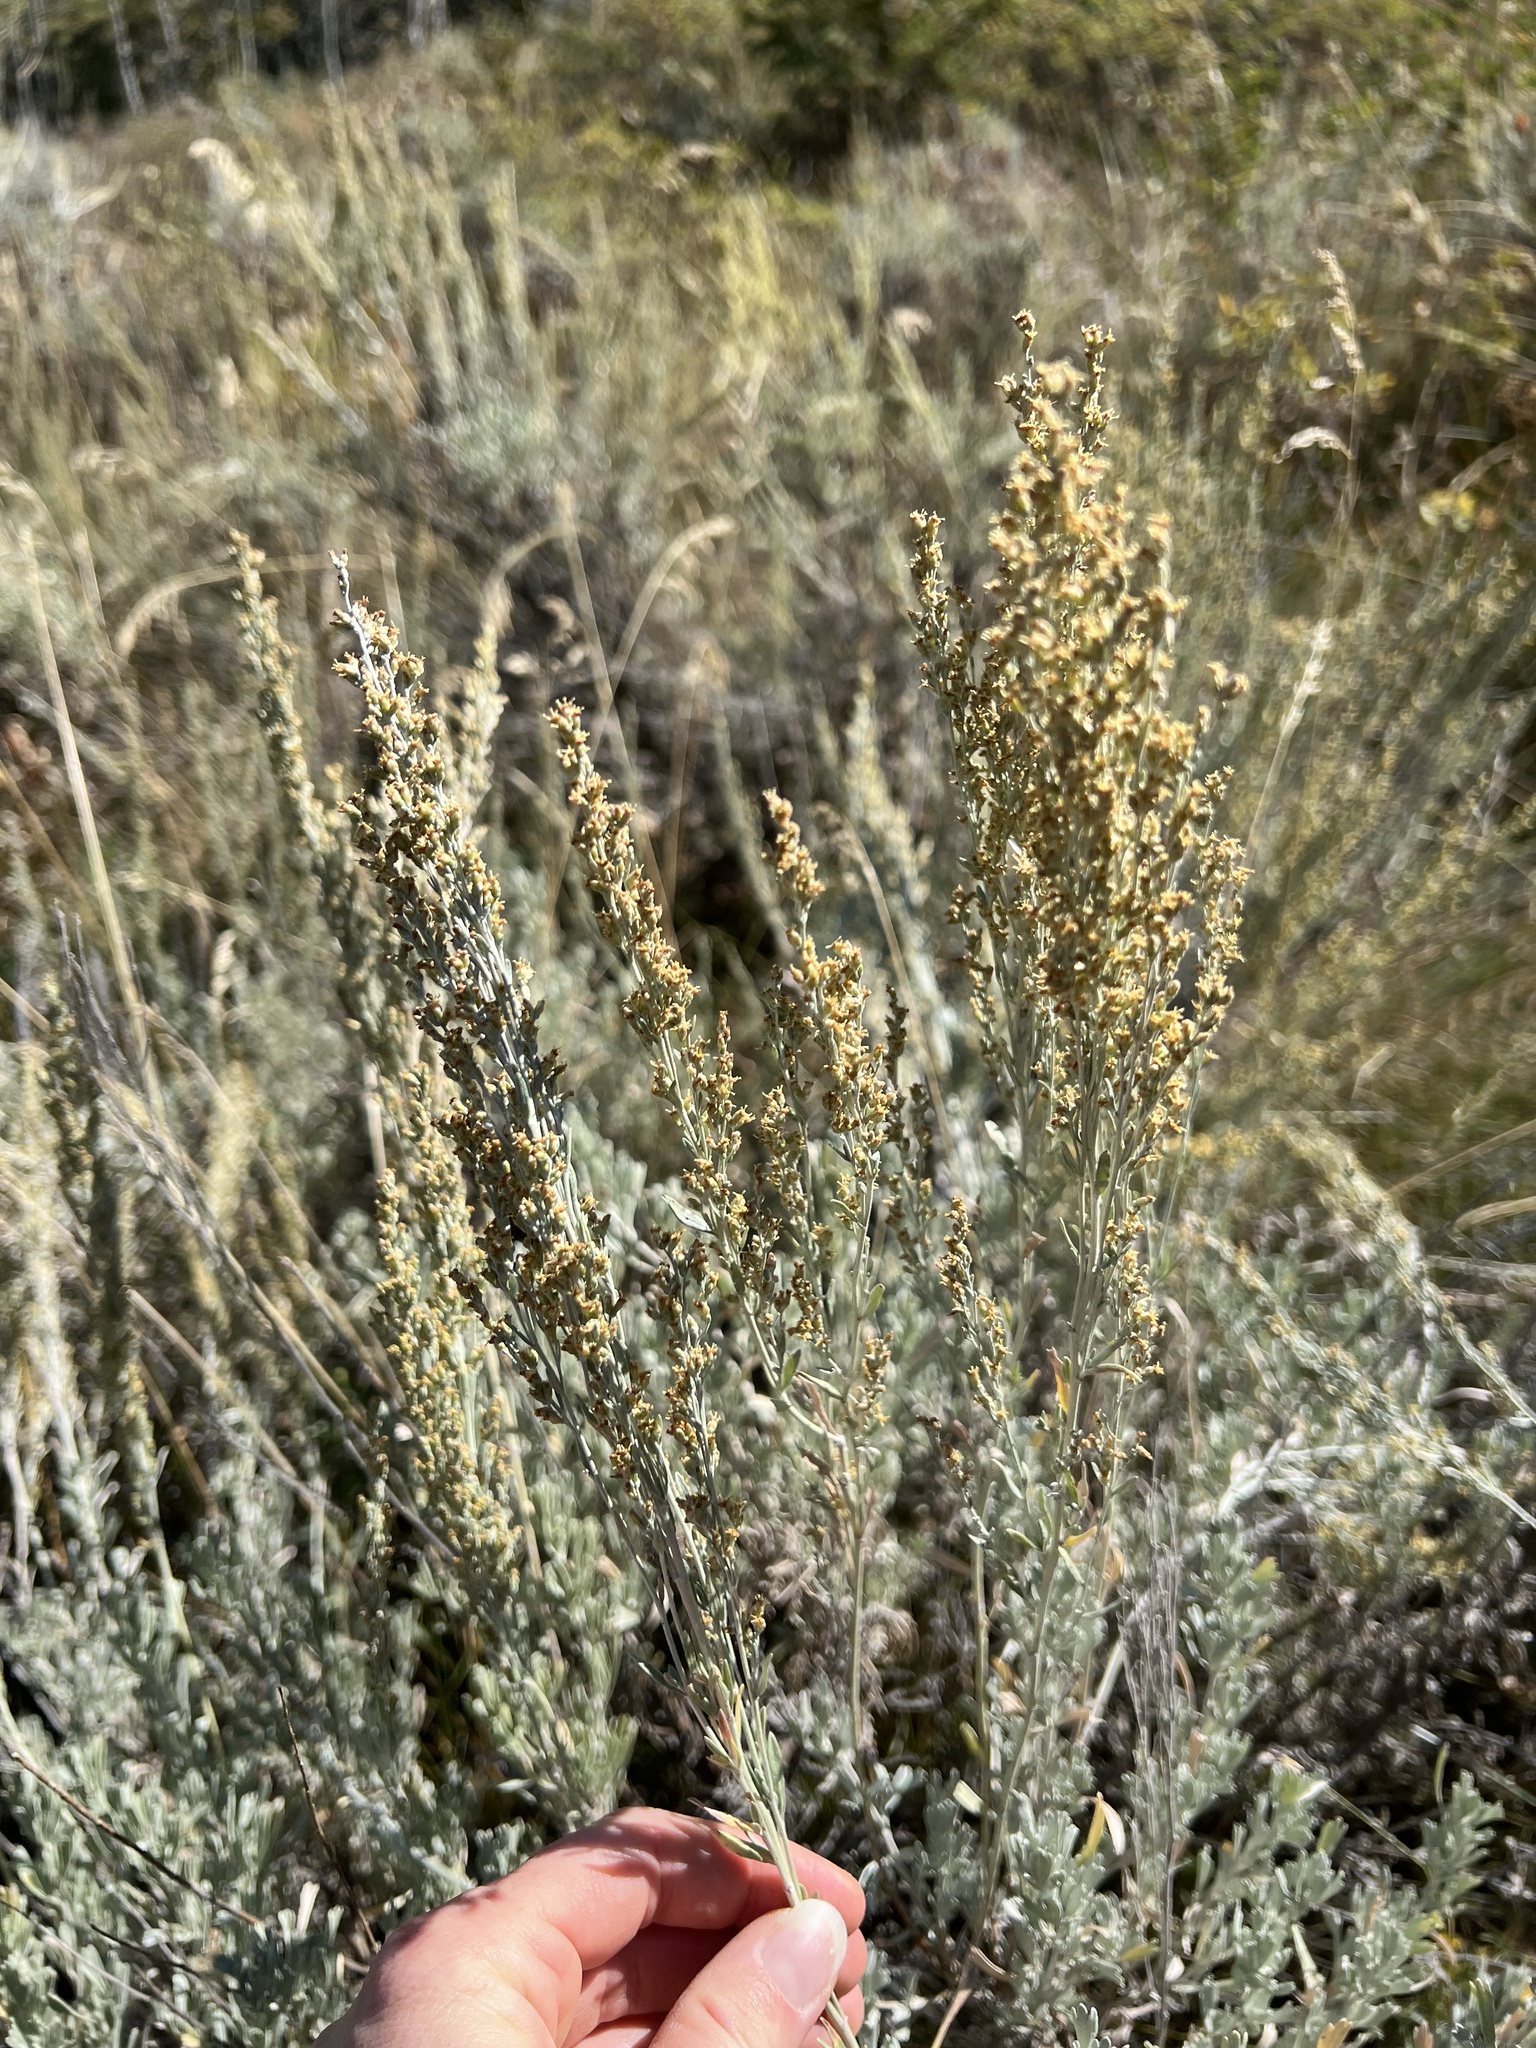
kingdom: Plantae
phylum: Tracheophyta
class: Magnoliopsida
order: Asterales
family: Asteraceae
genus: Artemisia
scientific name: Artemisia tridentata
